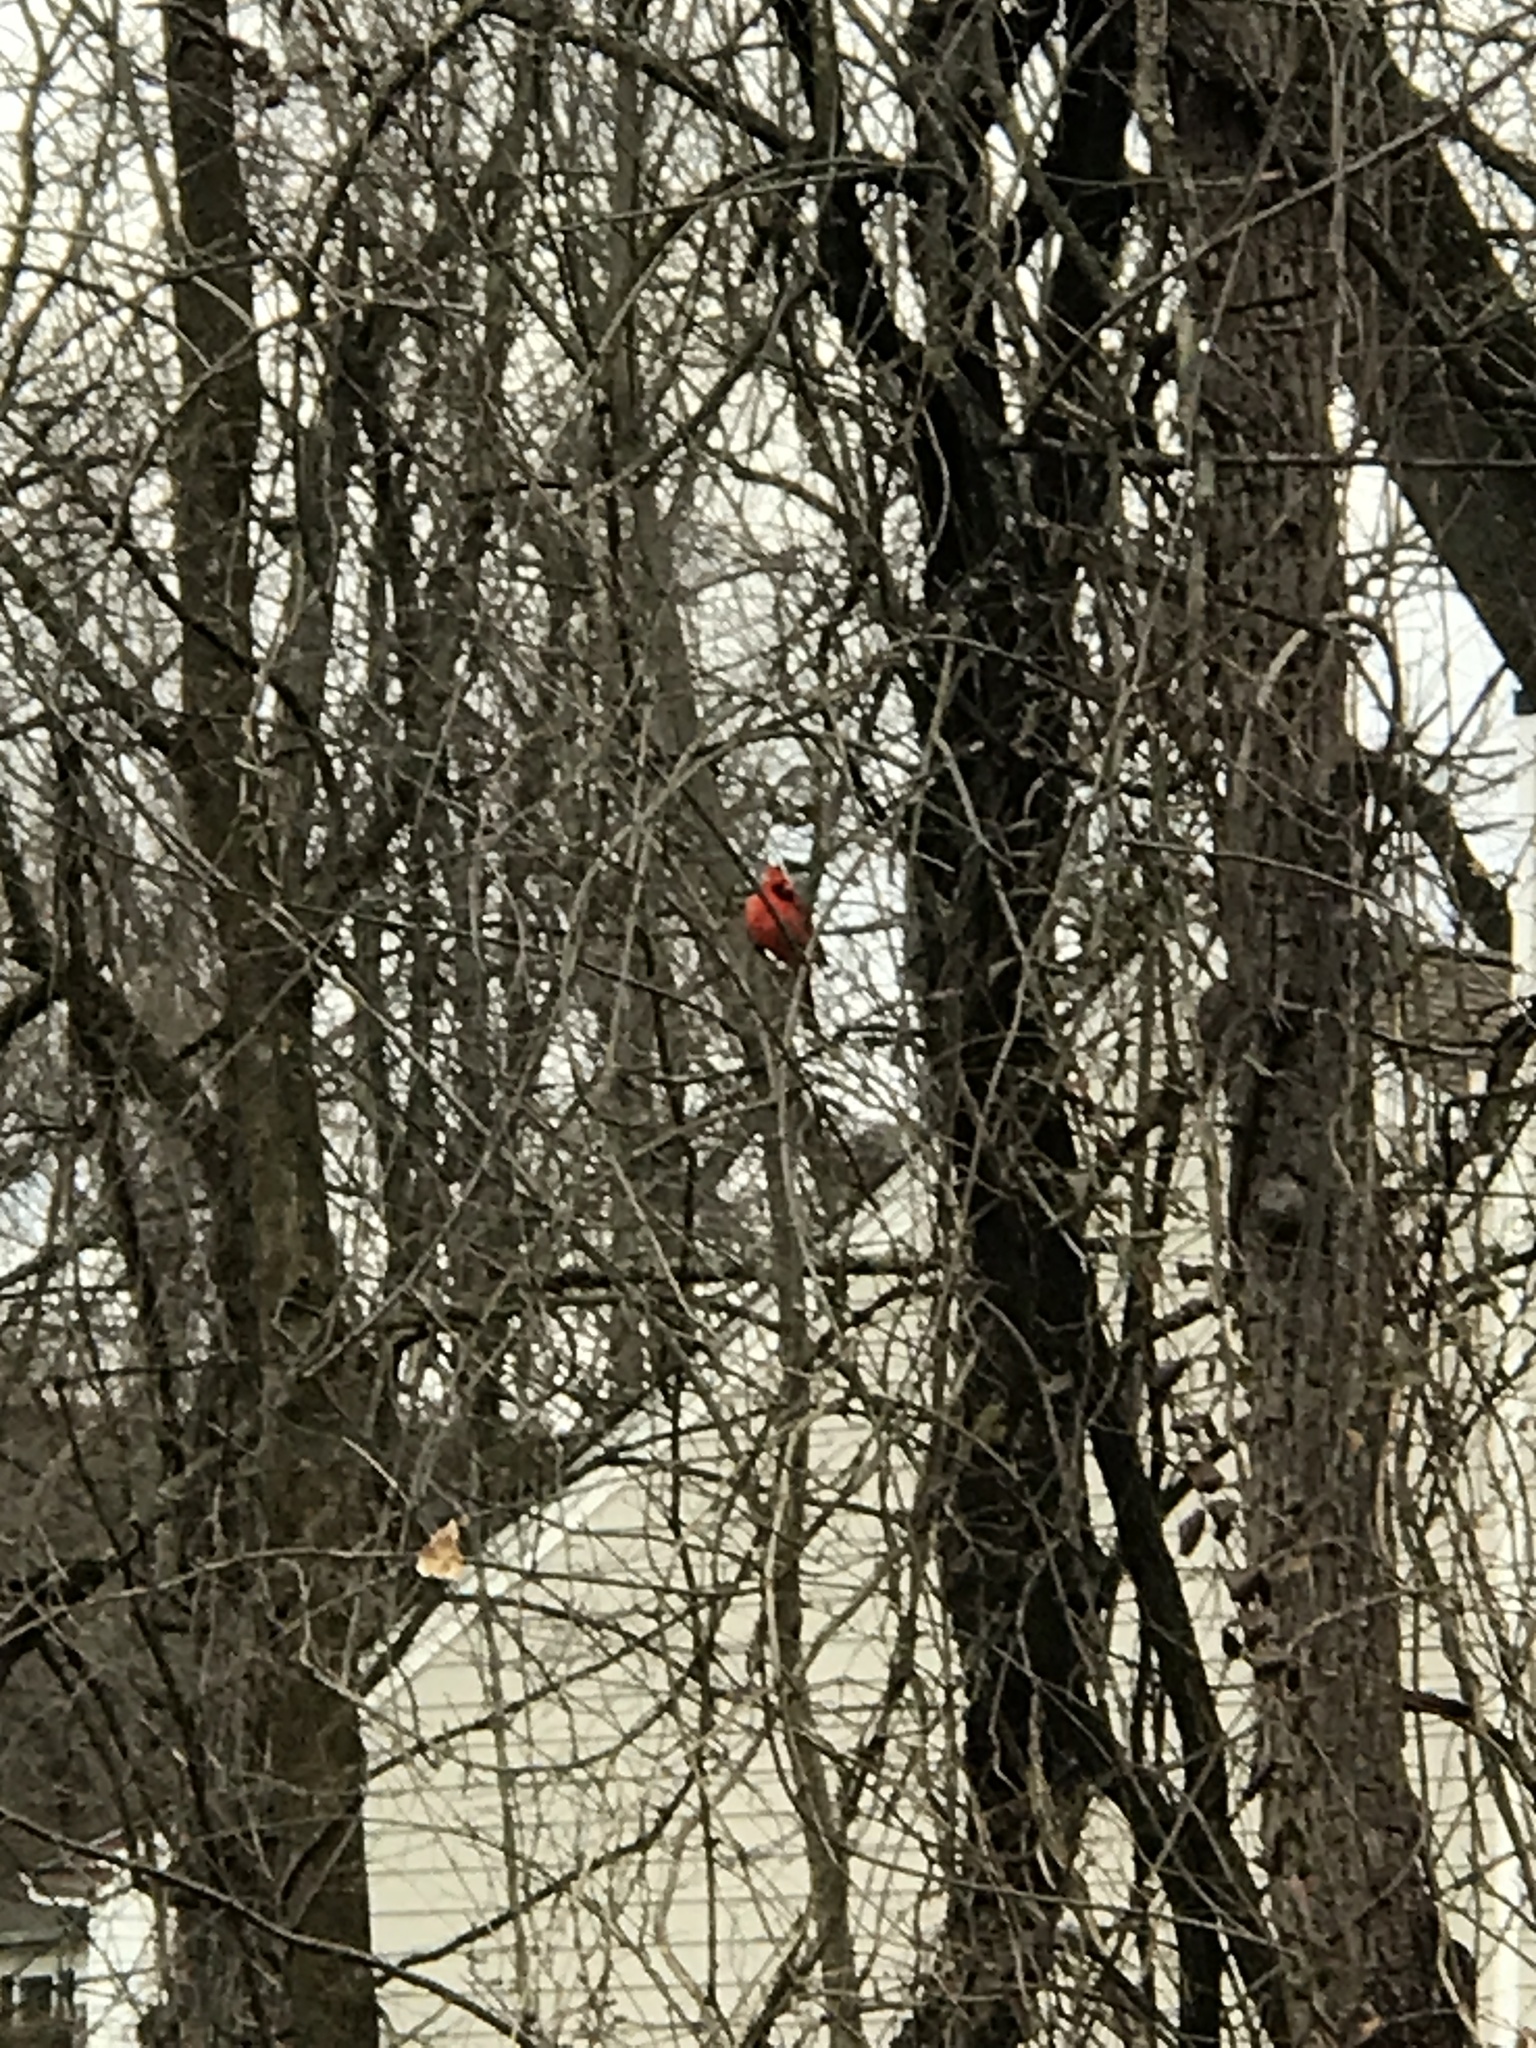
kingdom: Animalia
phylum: Chordata
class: Aves
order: Passeriformes
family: Cardinalidae
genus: Cardinalis
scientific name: Cardinalis cardinalis
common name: Northern cardinal
